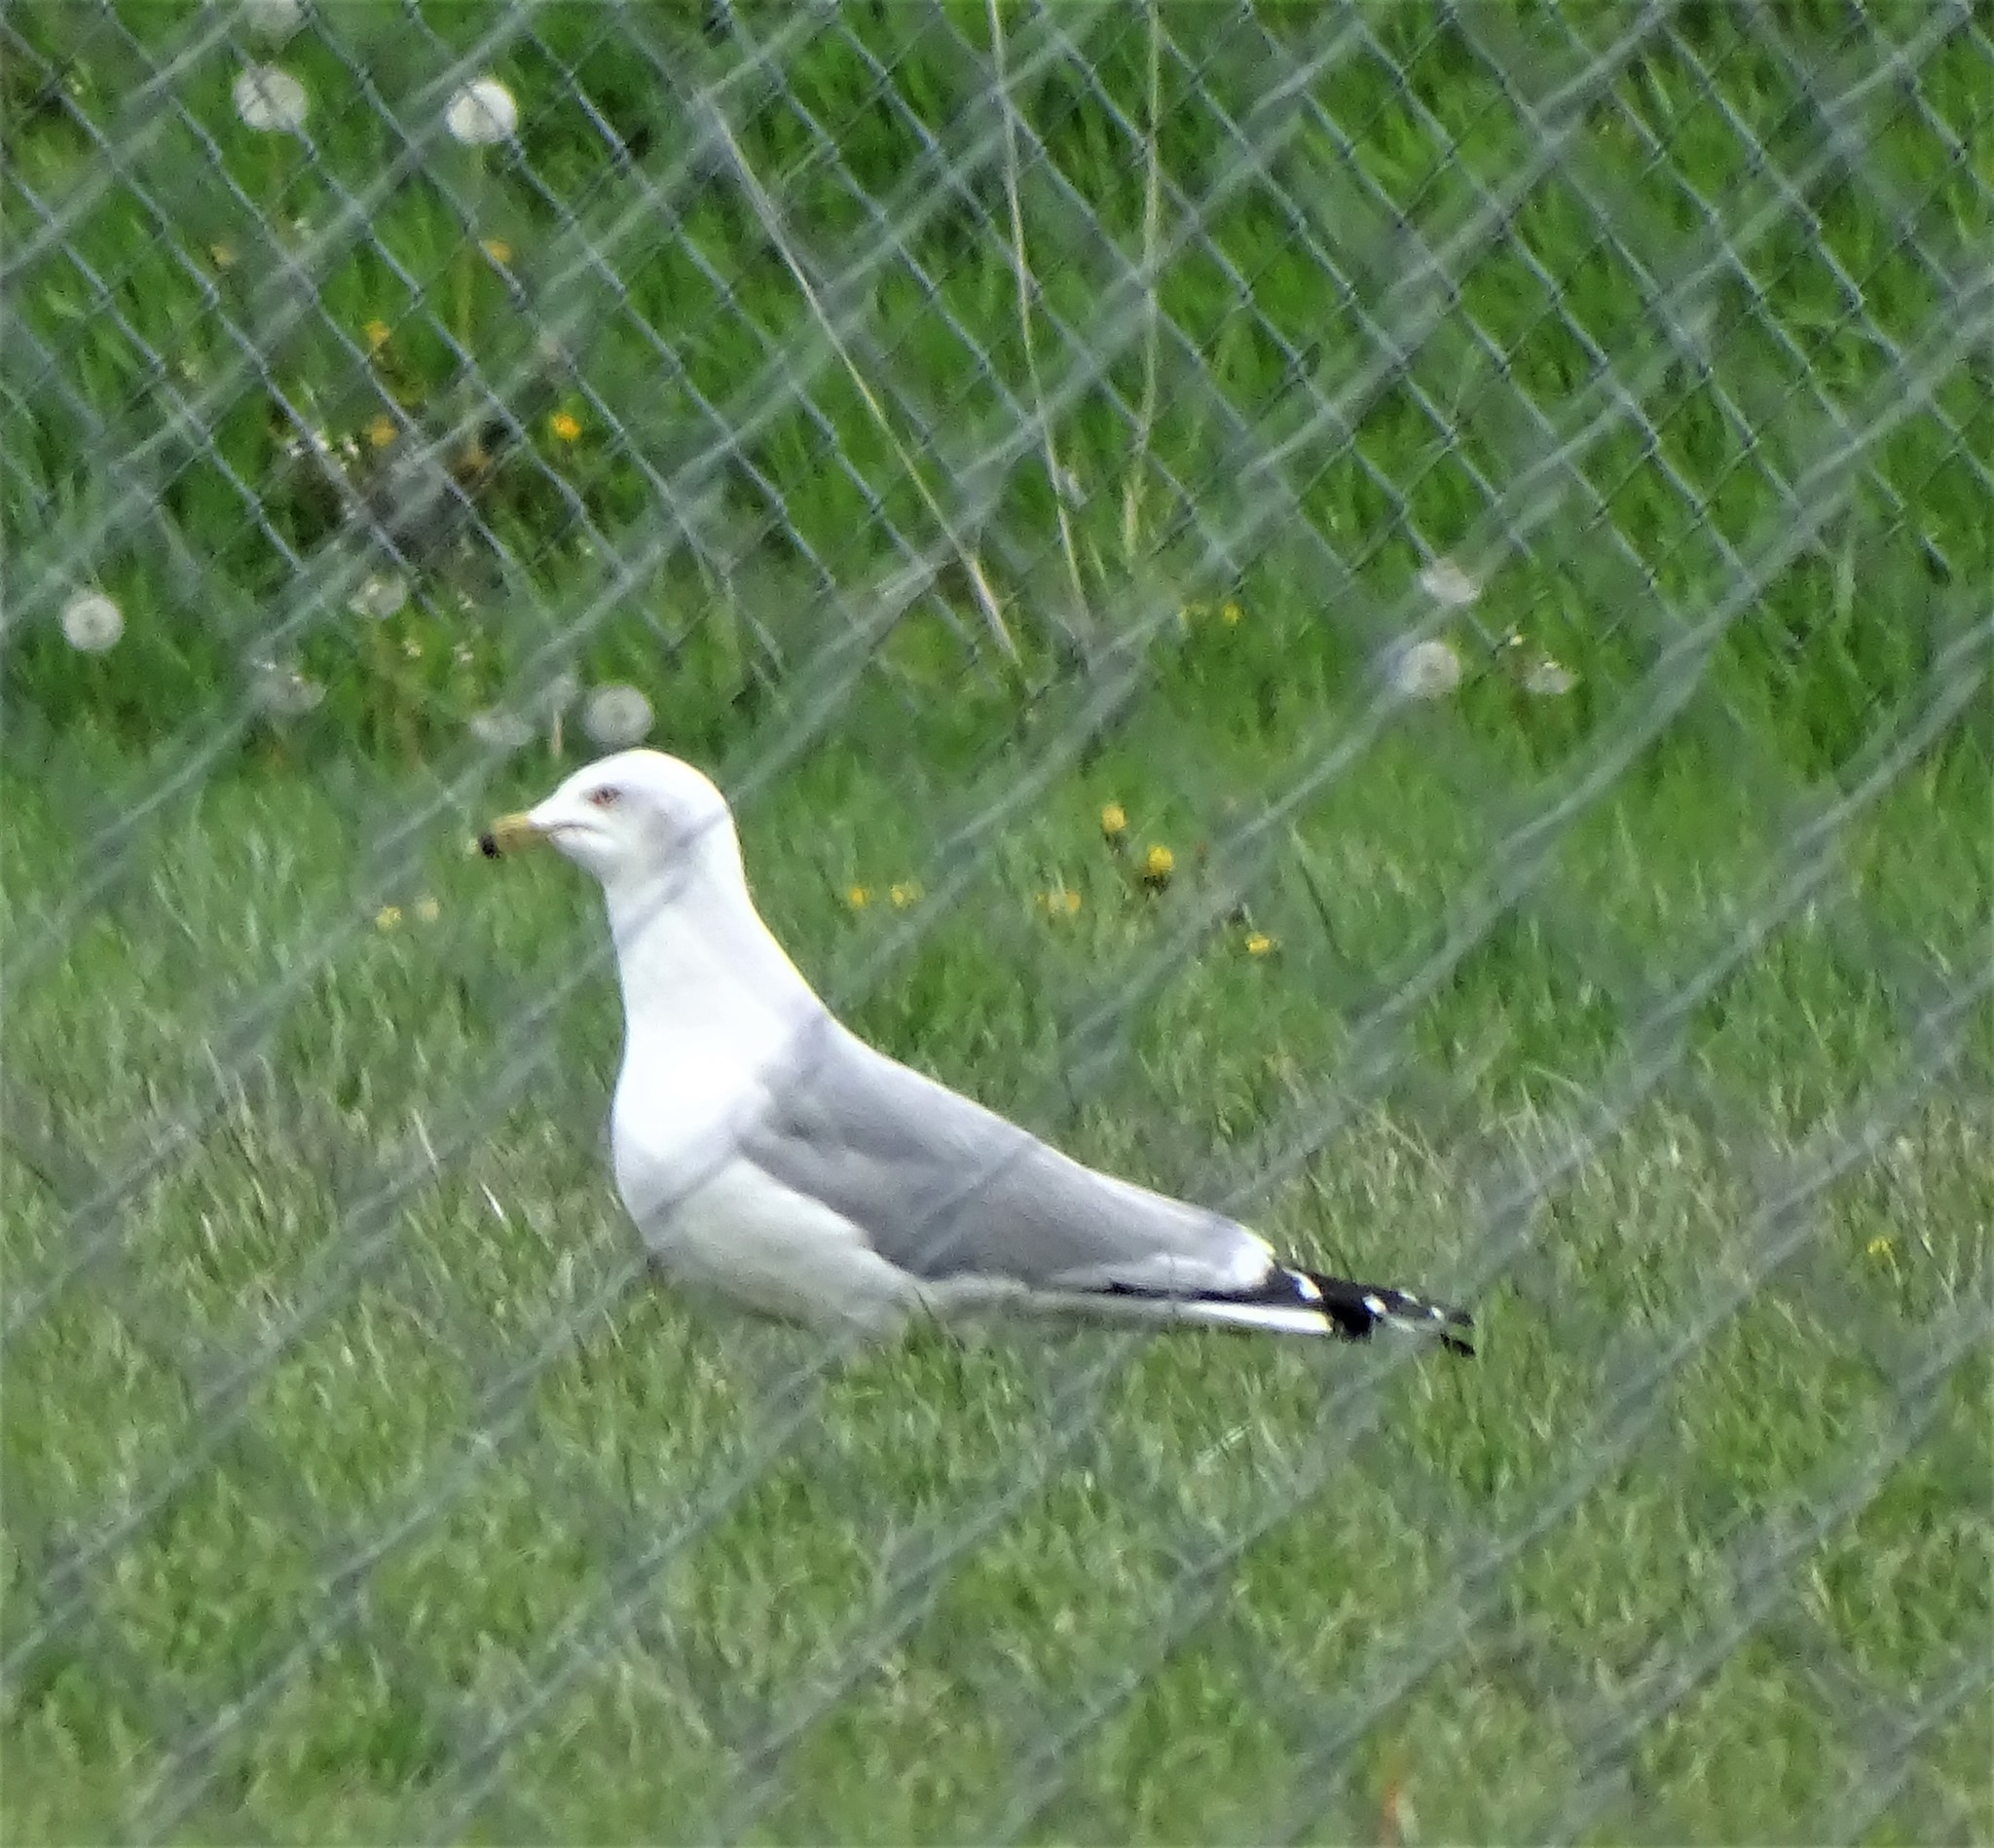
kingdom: Animalia
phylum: Chordata
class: Aves
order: Charadriiformes
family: Laridae
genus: Larus
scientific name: Larus delawarensis
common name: Ring-billed gull
